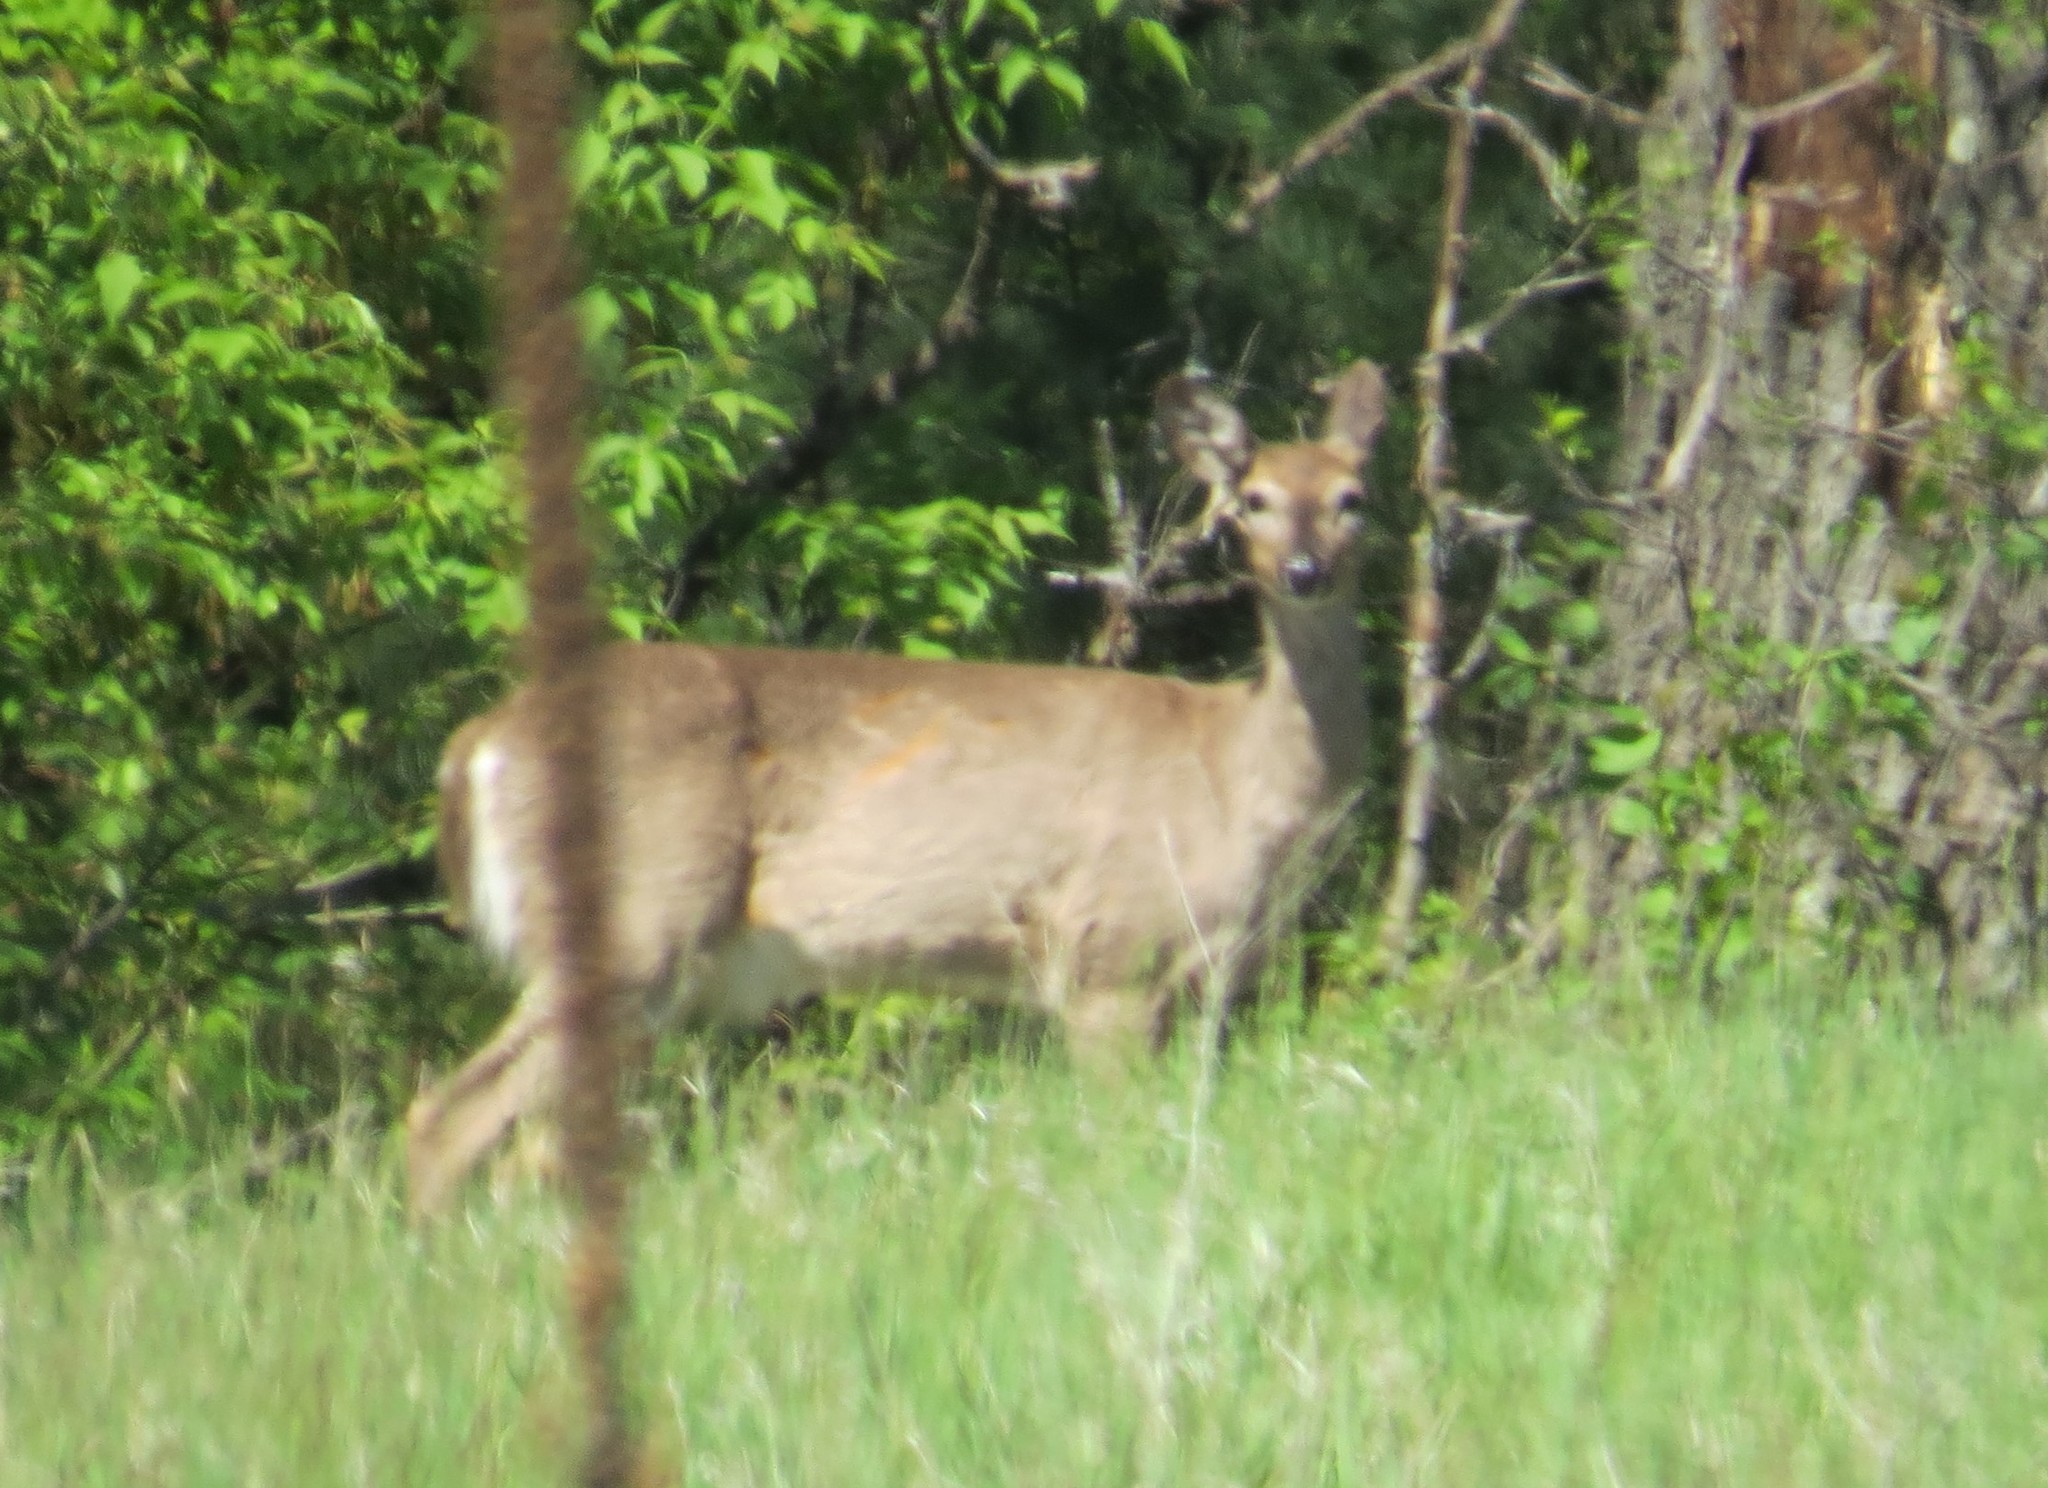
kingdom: Animalia
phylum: Chordata
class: Mammalia
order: Artiodactyla
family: Cervidae
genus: Odocoileus
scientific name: Odocoileus virginianus
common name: White-tailed deer
